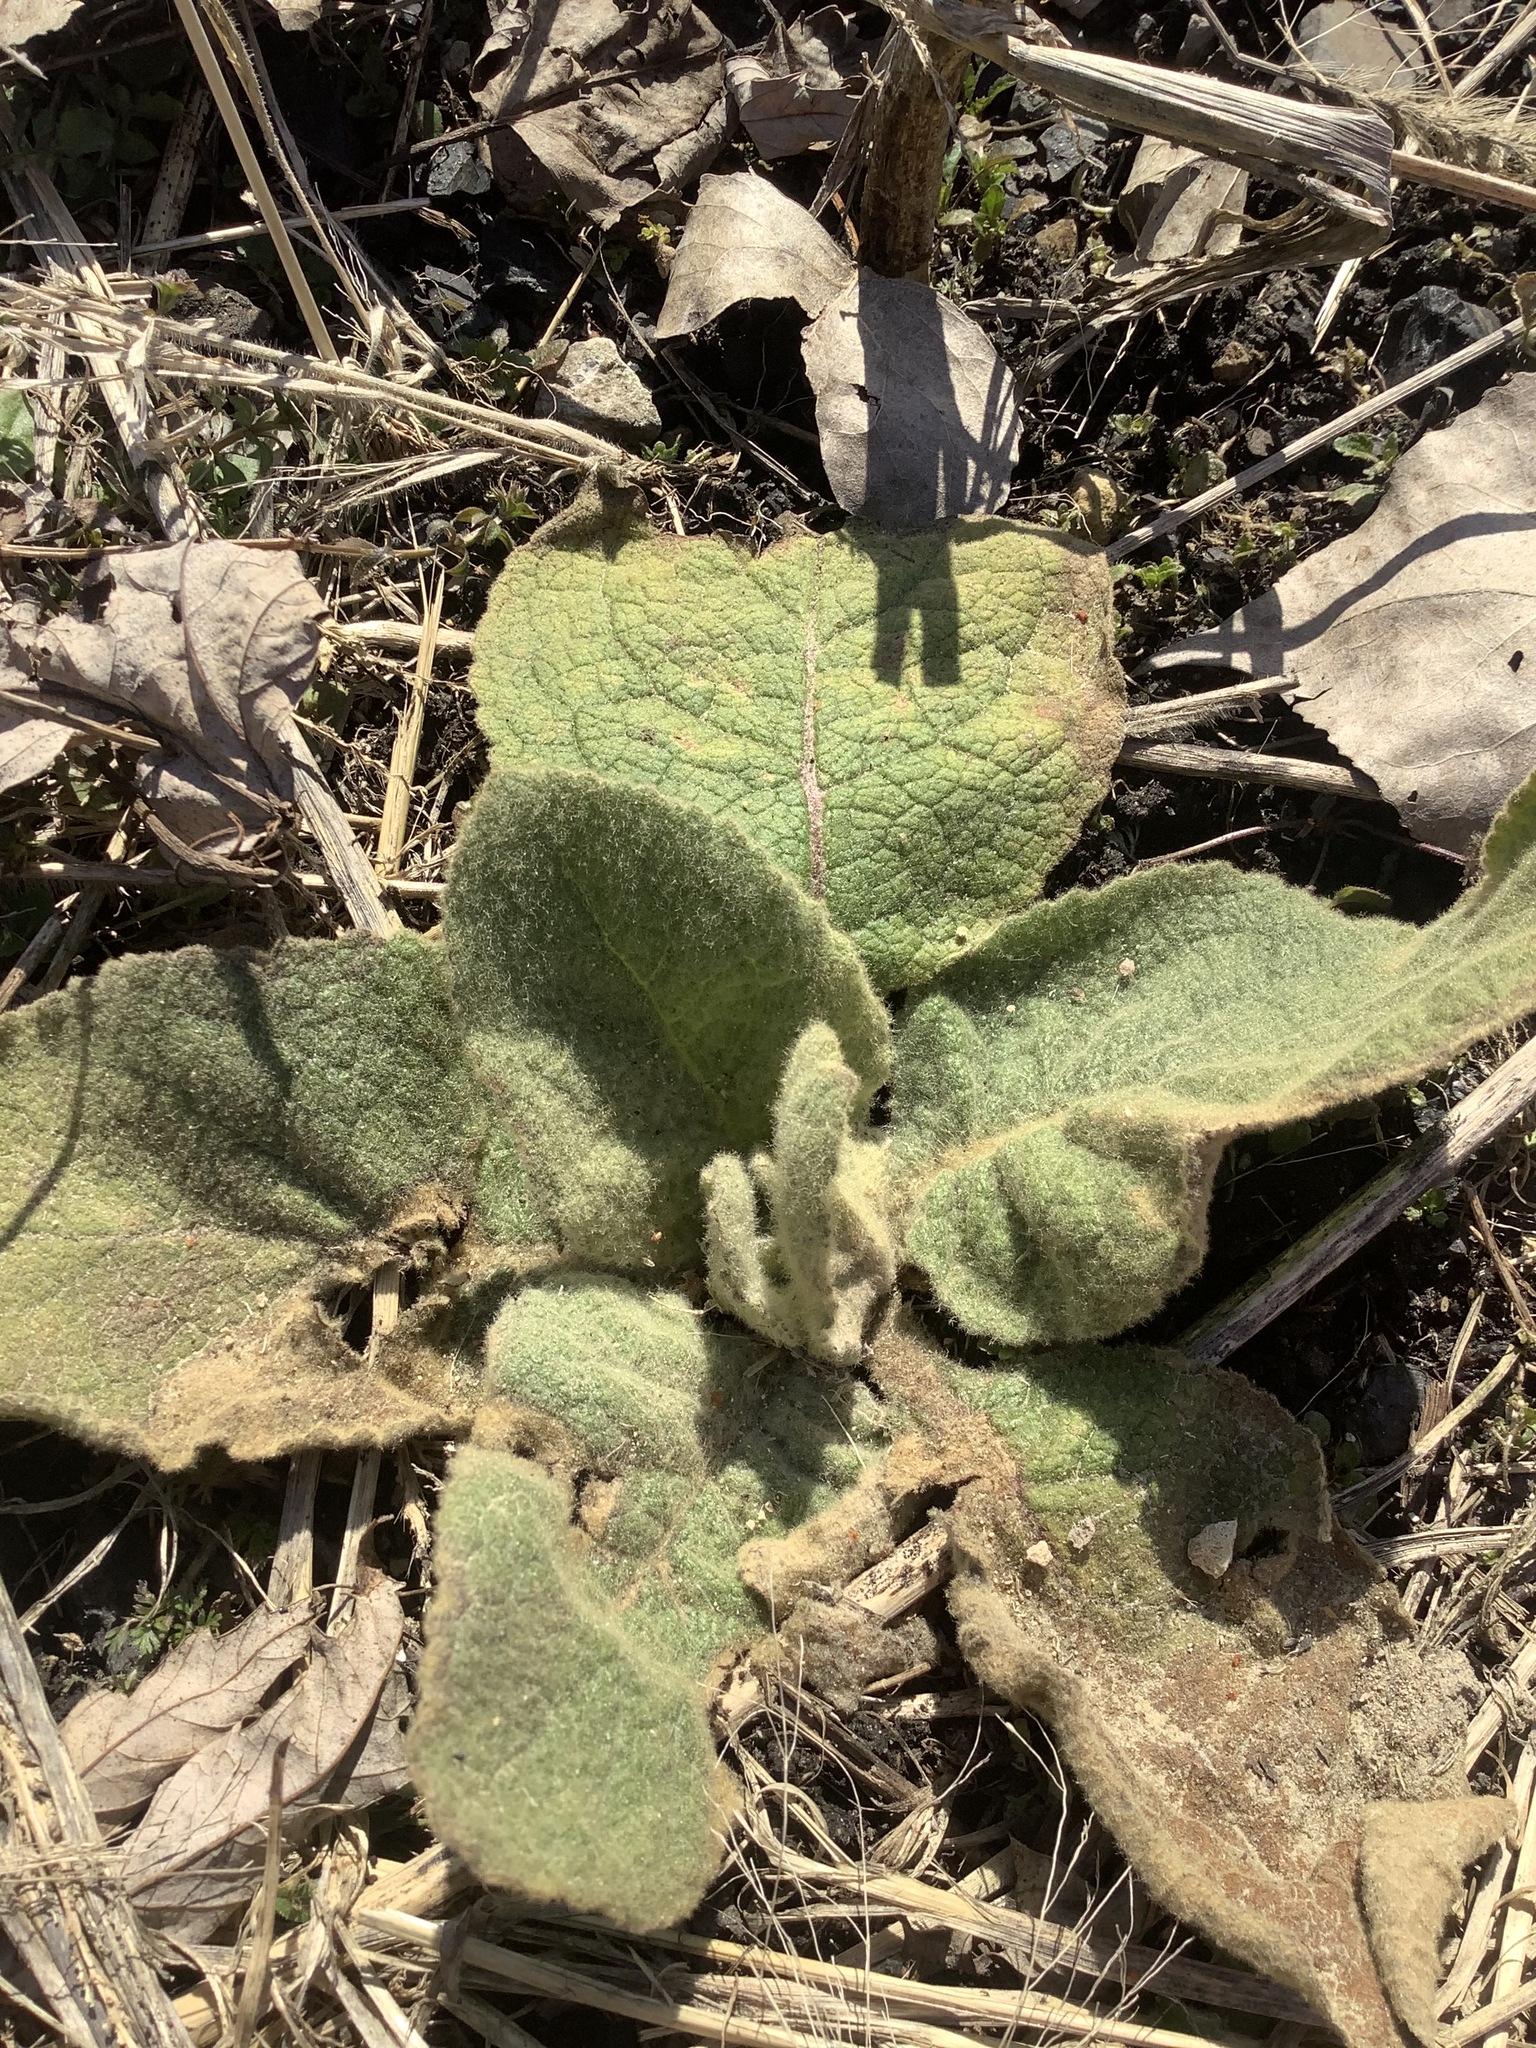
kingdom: Plantae
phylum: Tracheophyta
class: Magnoliopsida
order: Lamiales
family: Scrophulariaceae
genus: Verbascum
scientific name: Verbascum thapsus
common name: Common mullein
